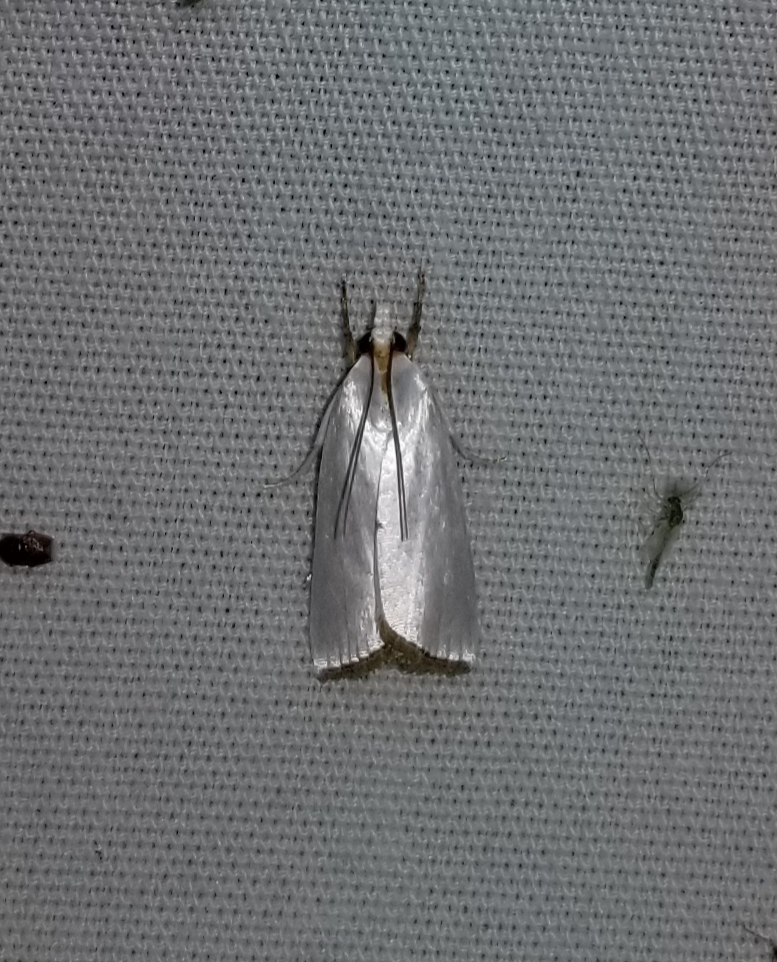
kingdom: Animalia
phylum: Arthropoda
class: Insecta
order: Lepidoptera
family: Crambidae
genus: Argyria
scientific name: Argyria nivalis
